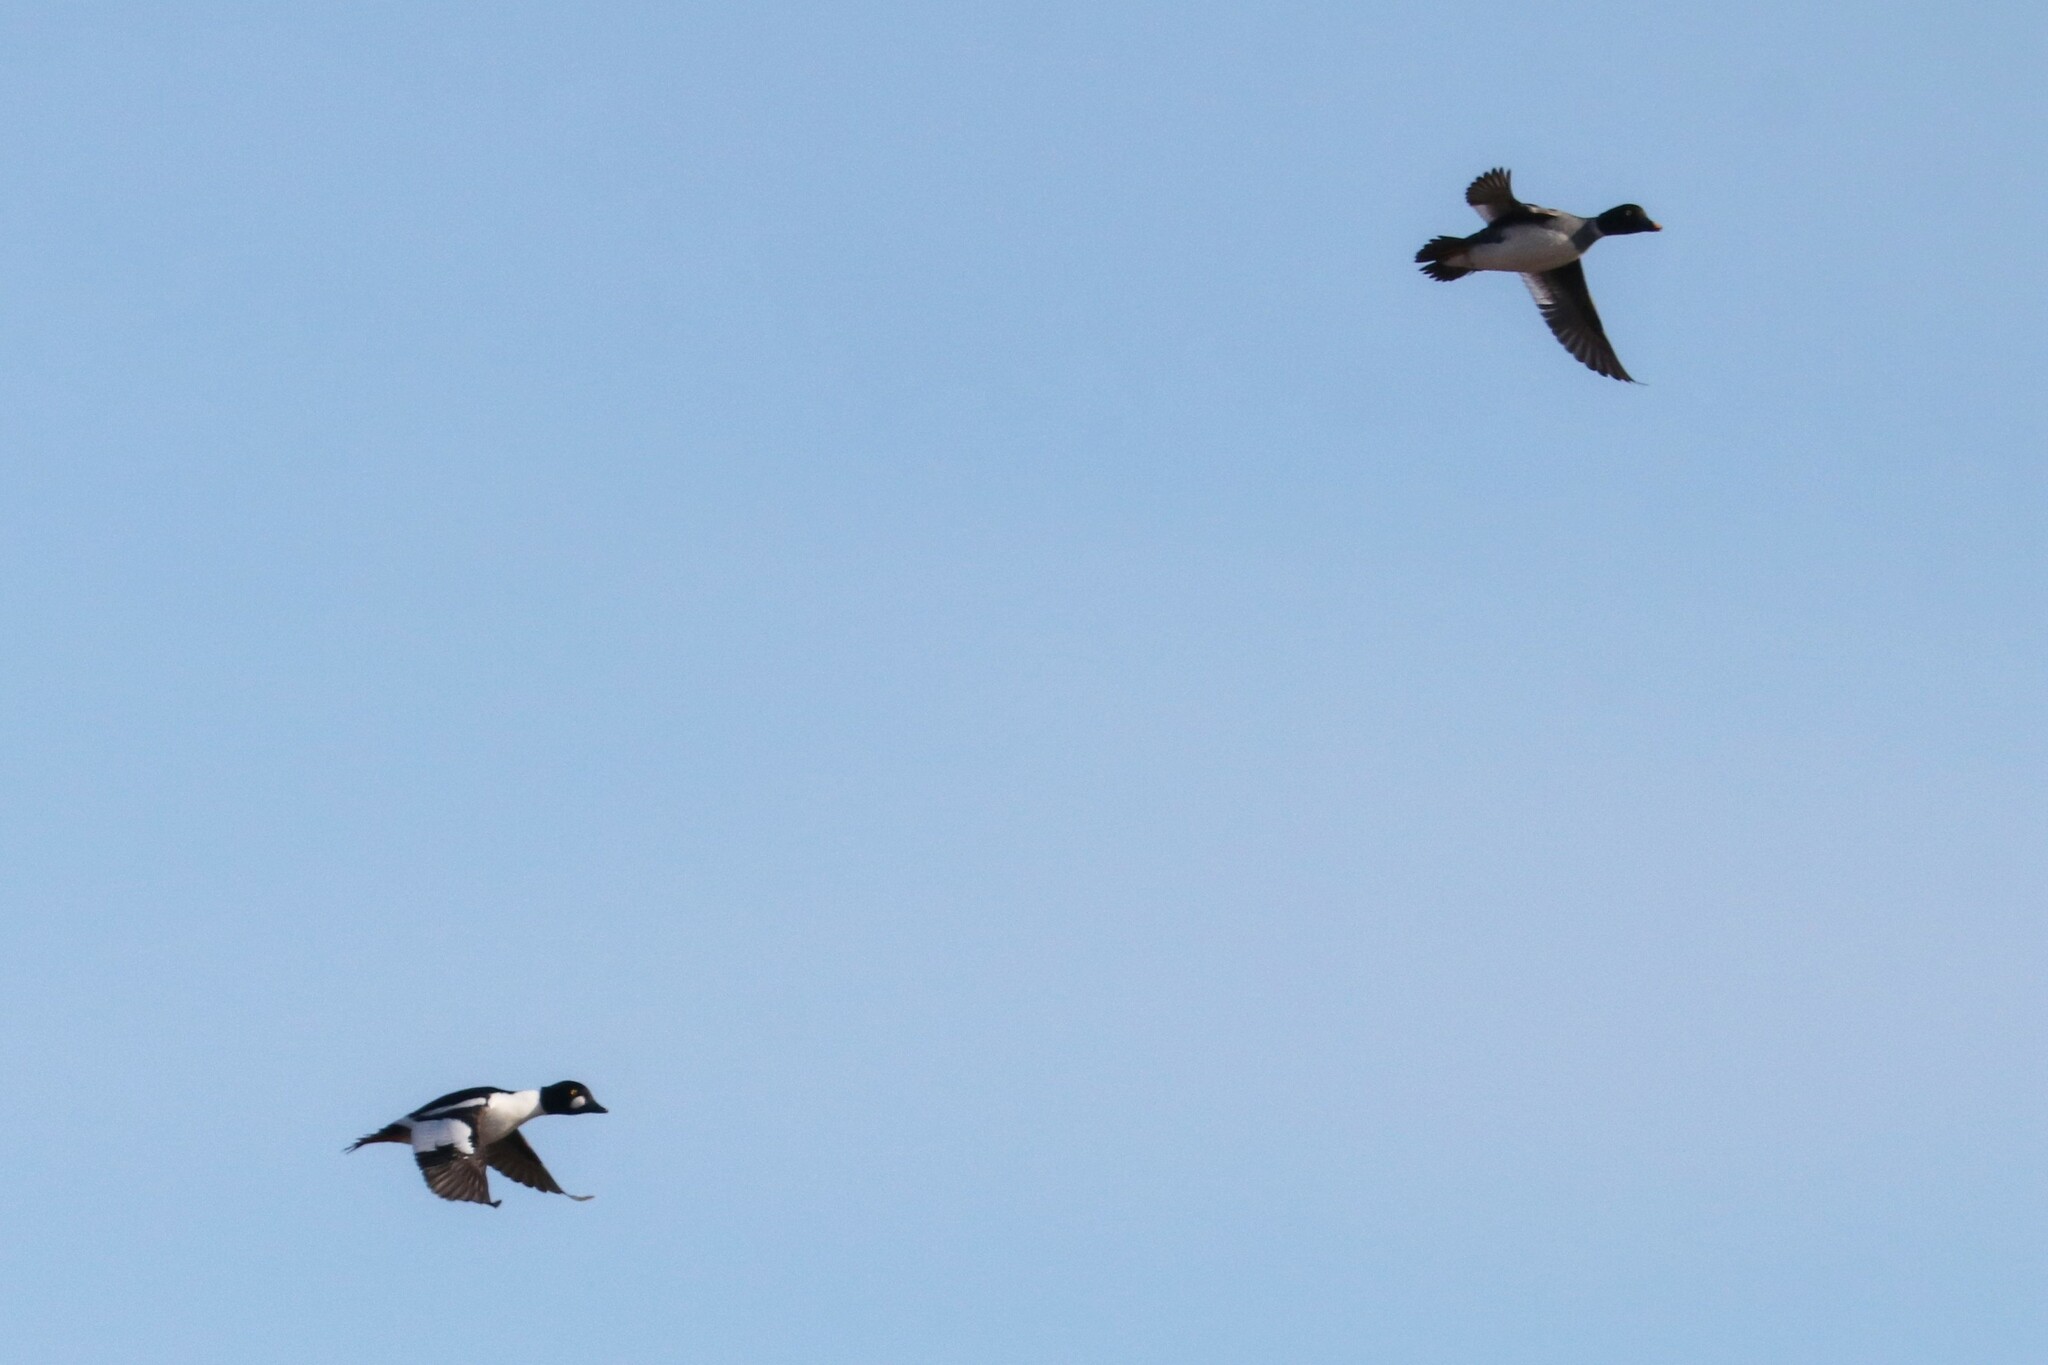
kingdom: Animalia
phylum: Chordata
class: Aves
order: Anseriformes
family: Anatidae
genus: Bucephala
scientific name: Bucephala clangula
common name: Common goldeneye
